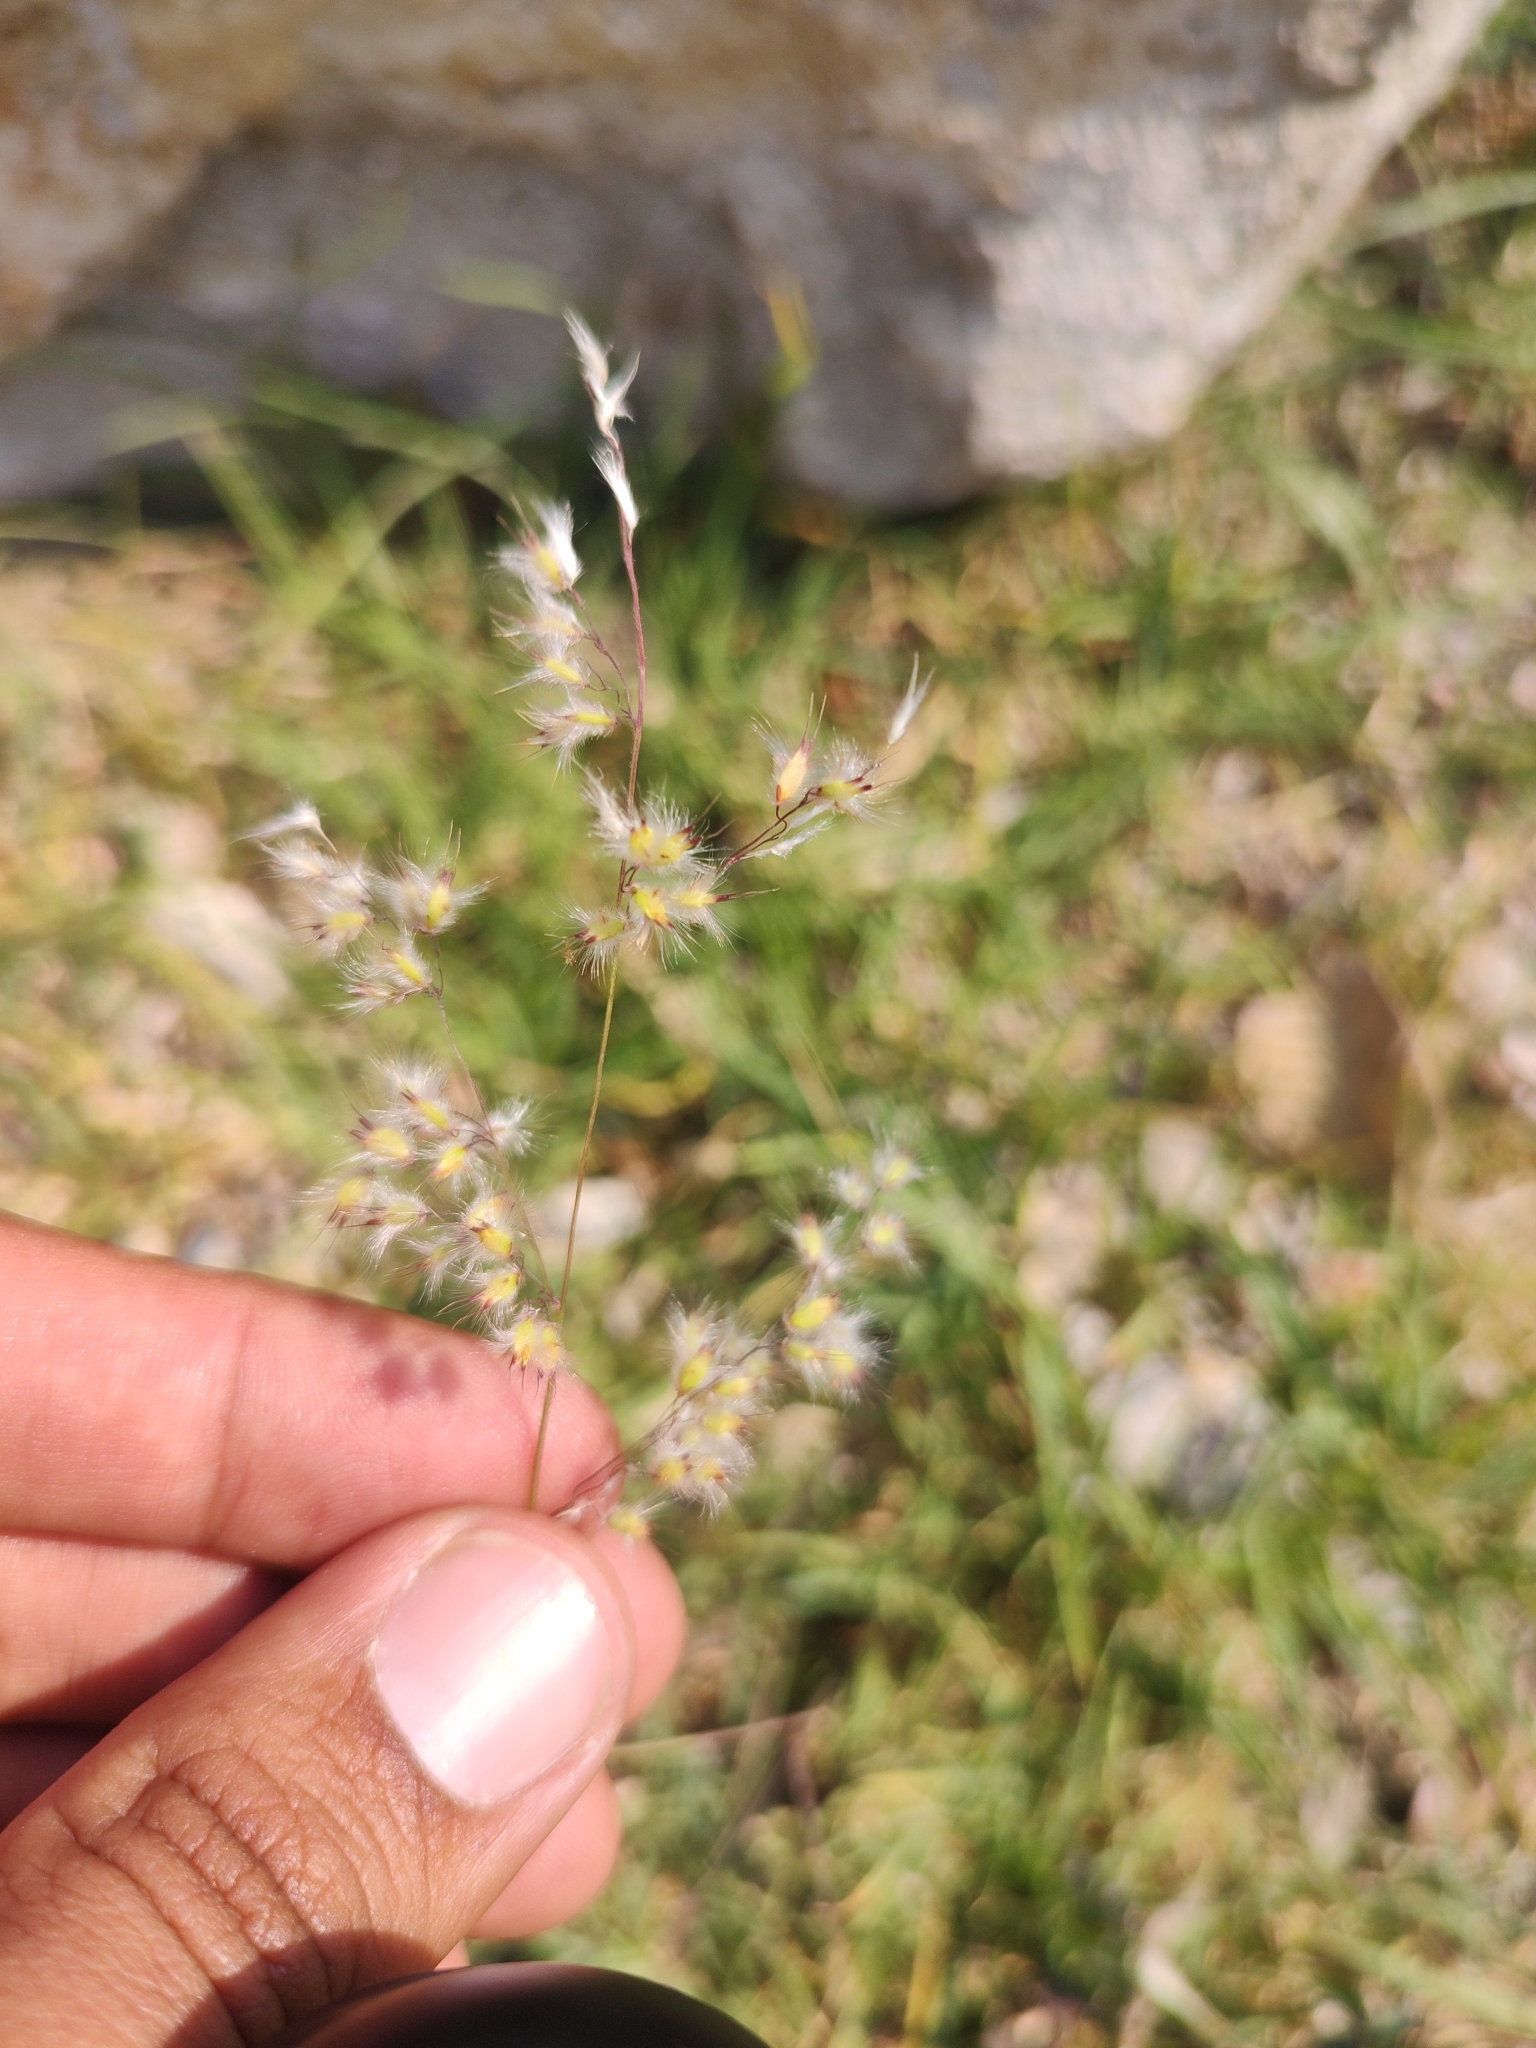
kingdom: Plantae
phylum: Tracheophyta
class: Liliopsida
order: Poales
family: Poaceae
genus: Melinis
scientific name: Melinis repens
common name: Rose natal grass
